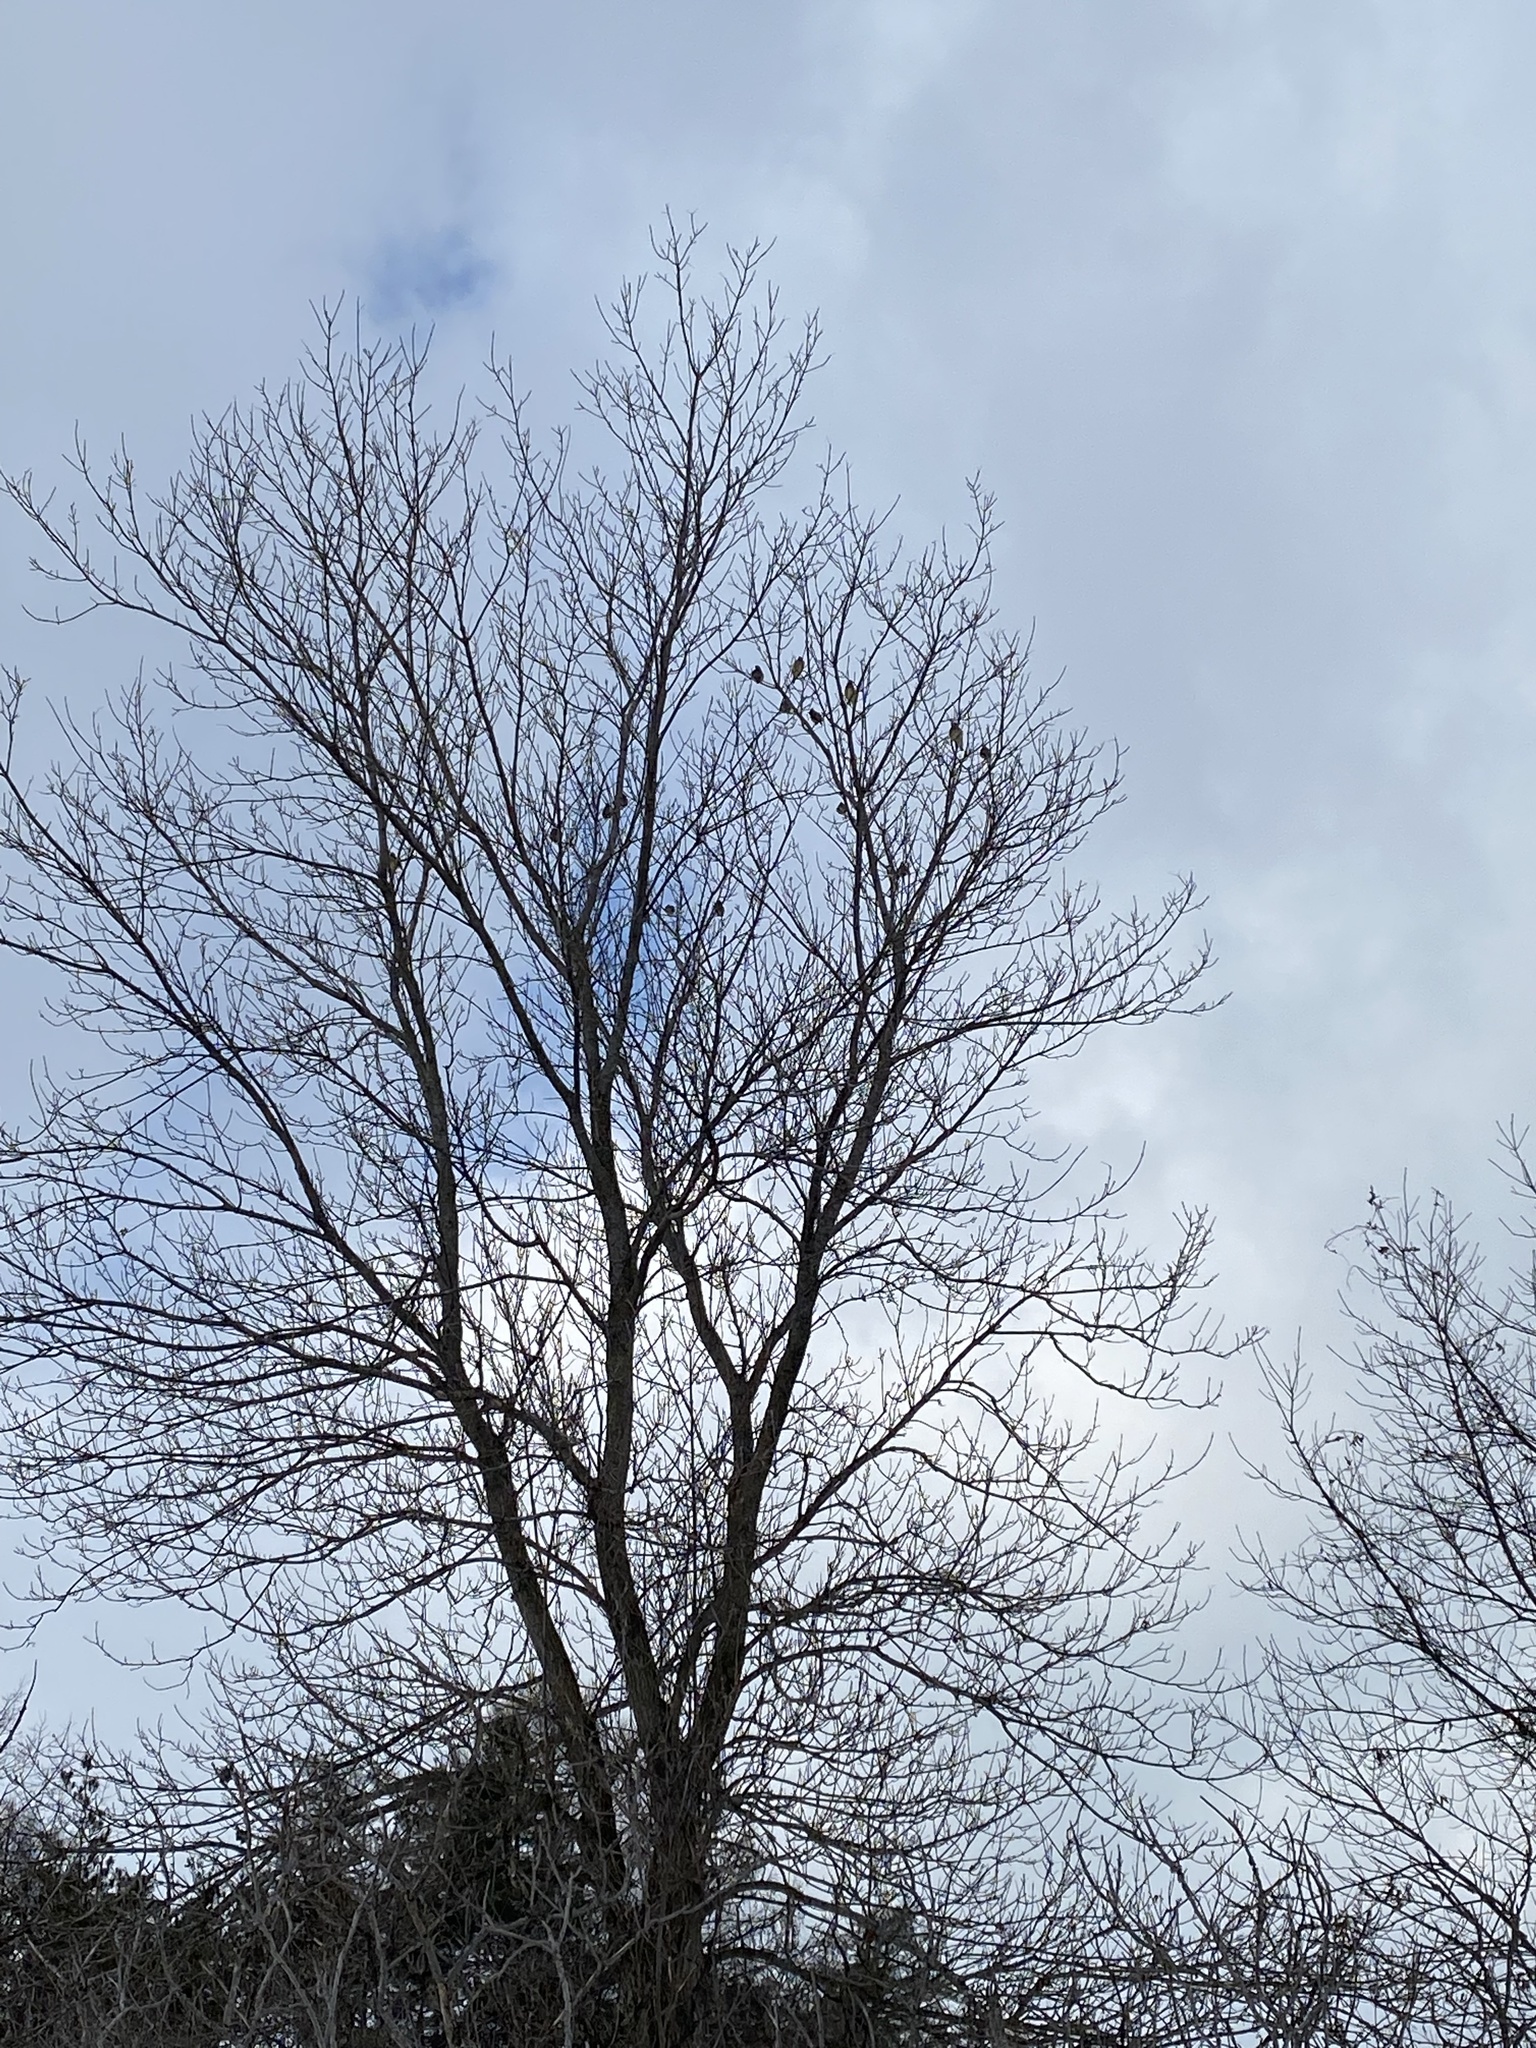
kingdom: Animalia
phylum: Chordata
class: Aves
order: Passeriformes
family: Bombycillidae
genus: Bombycilla
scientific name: Bombycilla cedrorum
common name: Cedar waxwing
